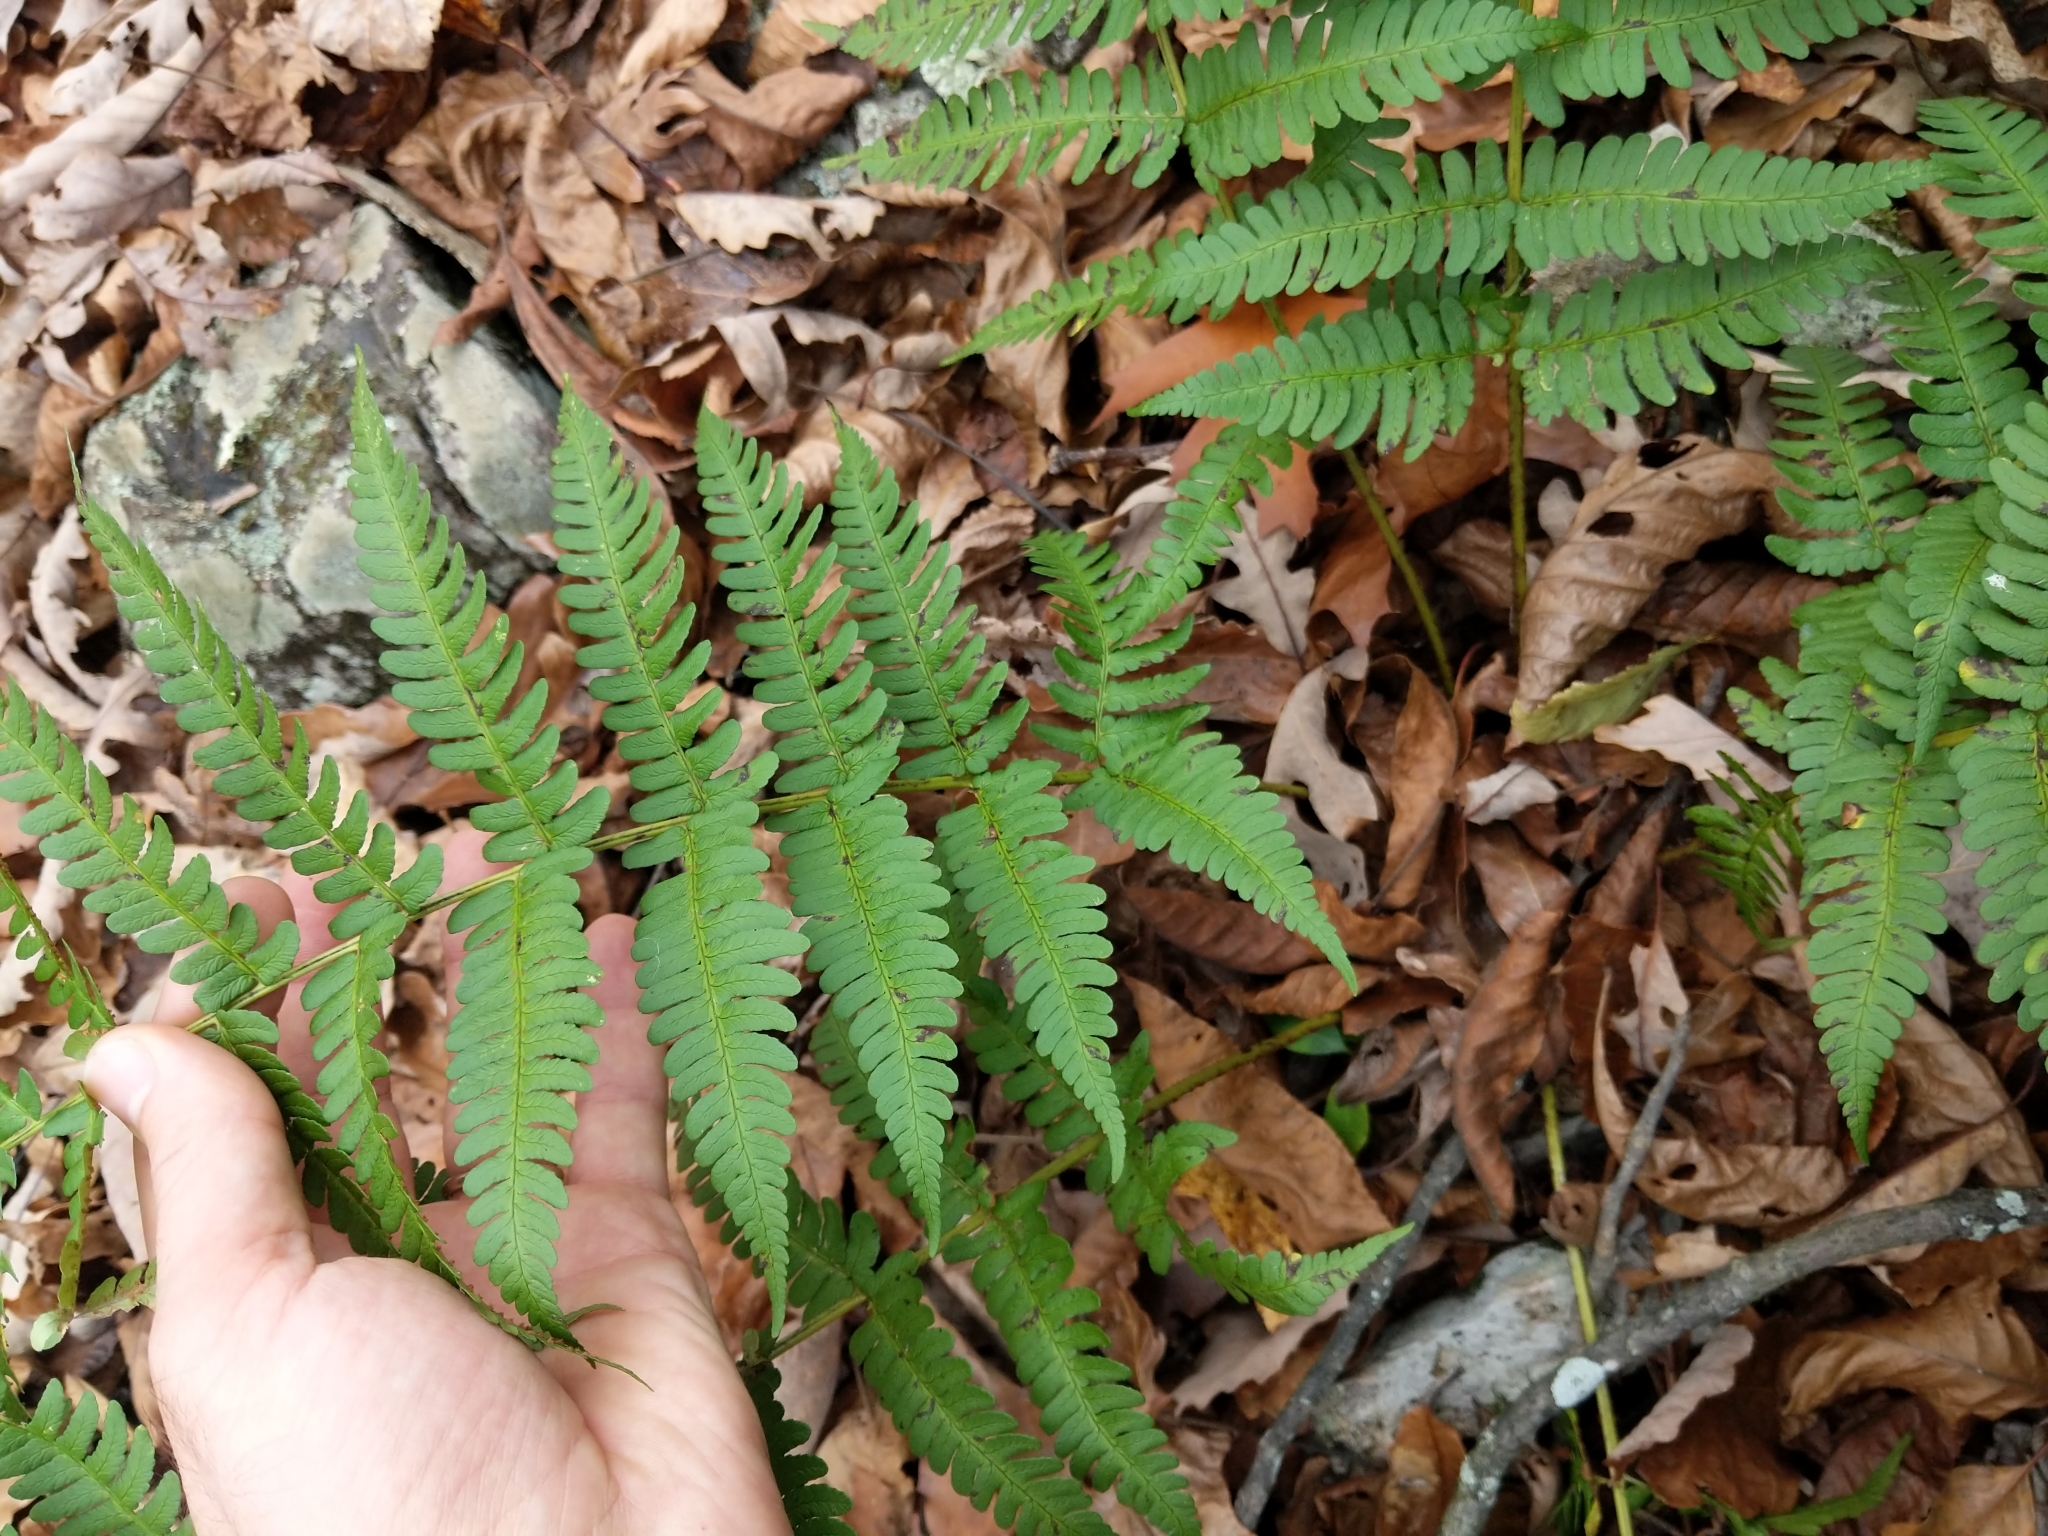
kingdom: Plantae
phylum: Tracheophyta
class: Polypodiopsida
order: Polypodiales
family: Dryopteridaceae
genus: Dryopteris
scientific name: Dryopteris marginalis
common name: Marginal wood fern
